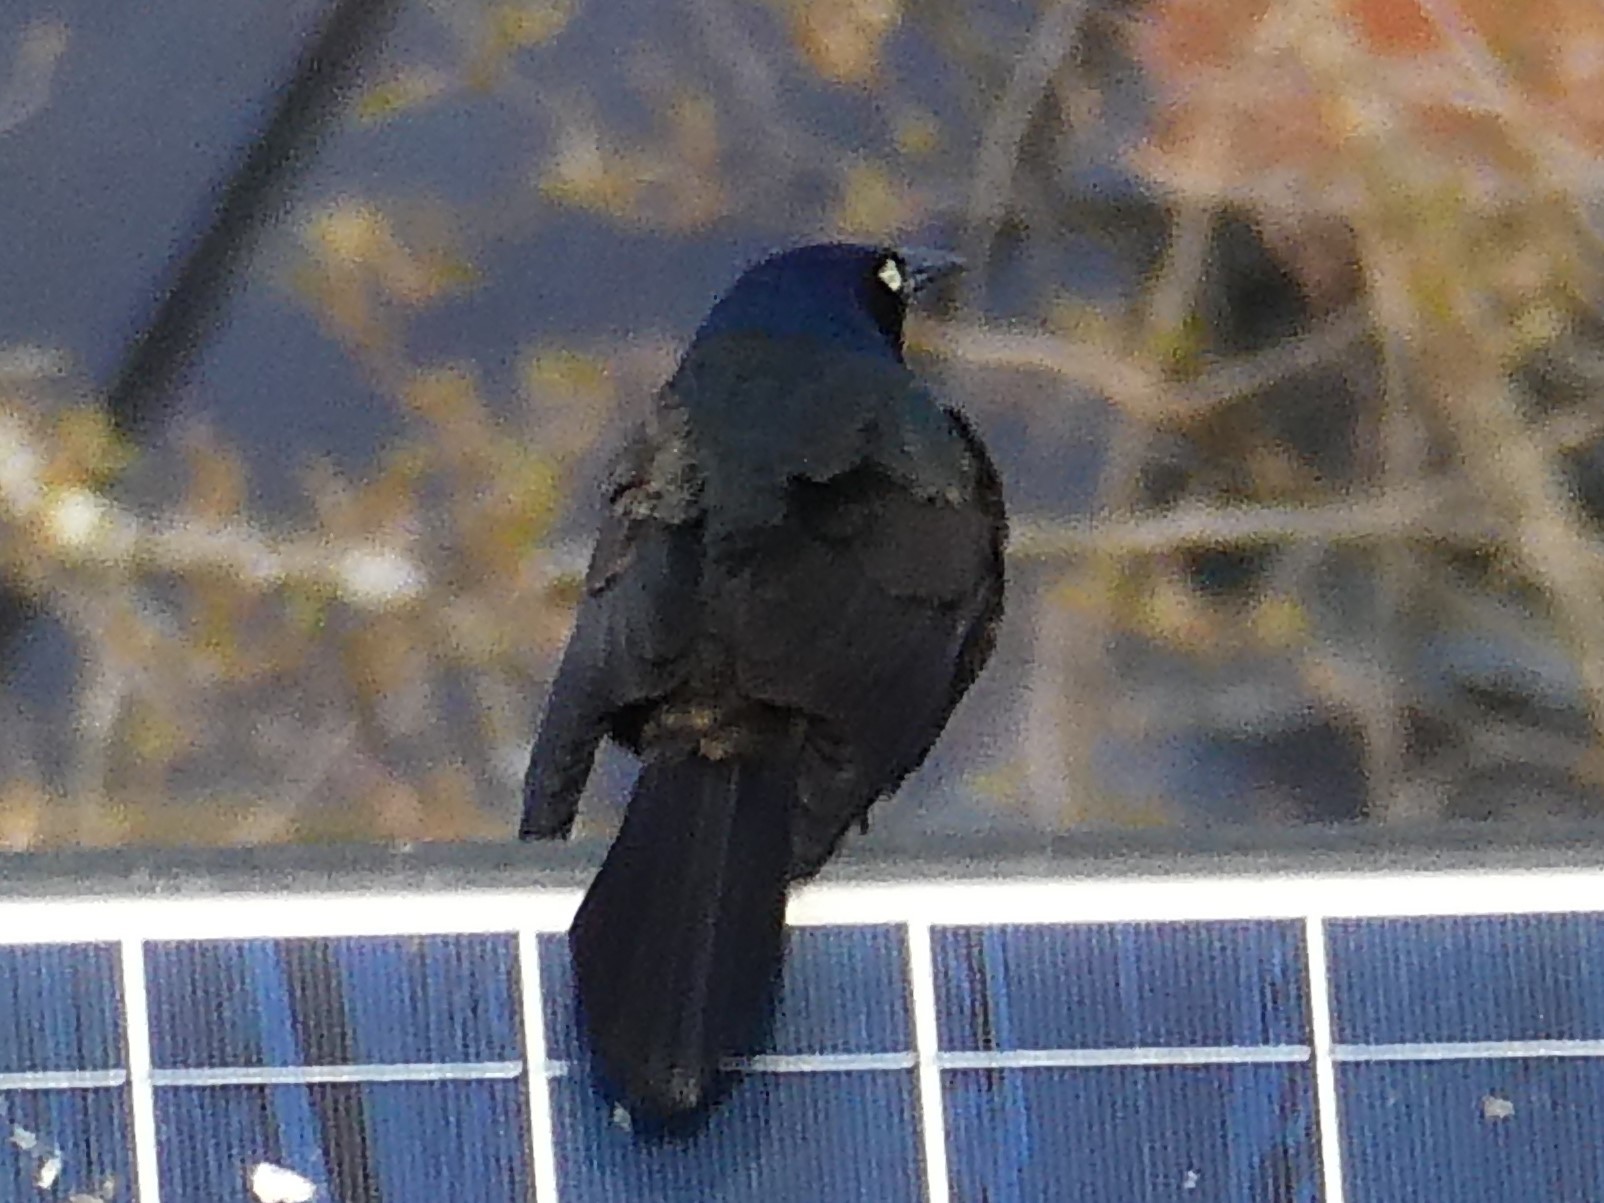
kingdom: Animalia
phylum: Chordata
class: Aves
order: Passeriformes
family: Icteridae
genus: Quiscalus
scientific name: Quiscalus quiscula
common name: Common grackle
